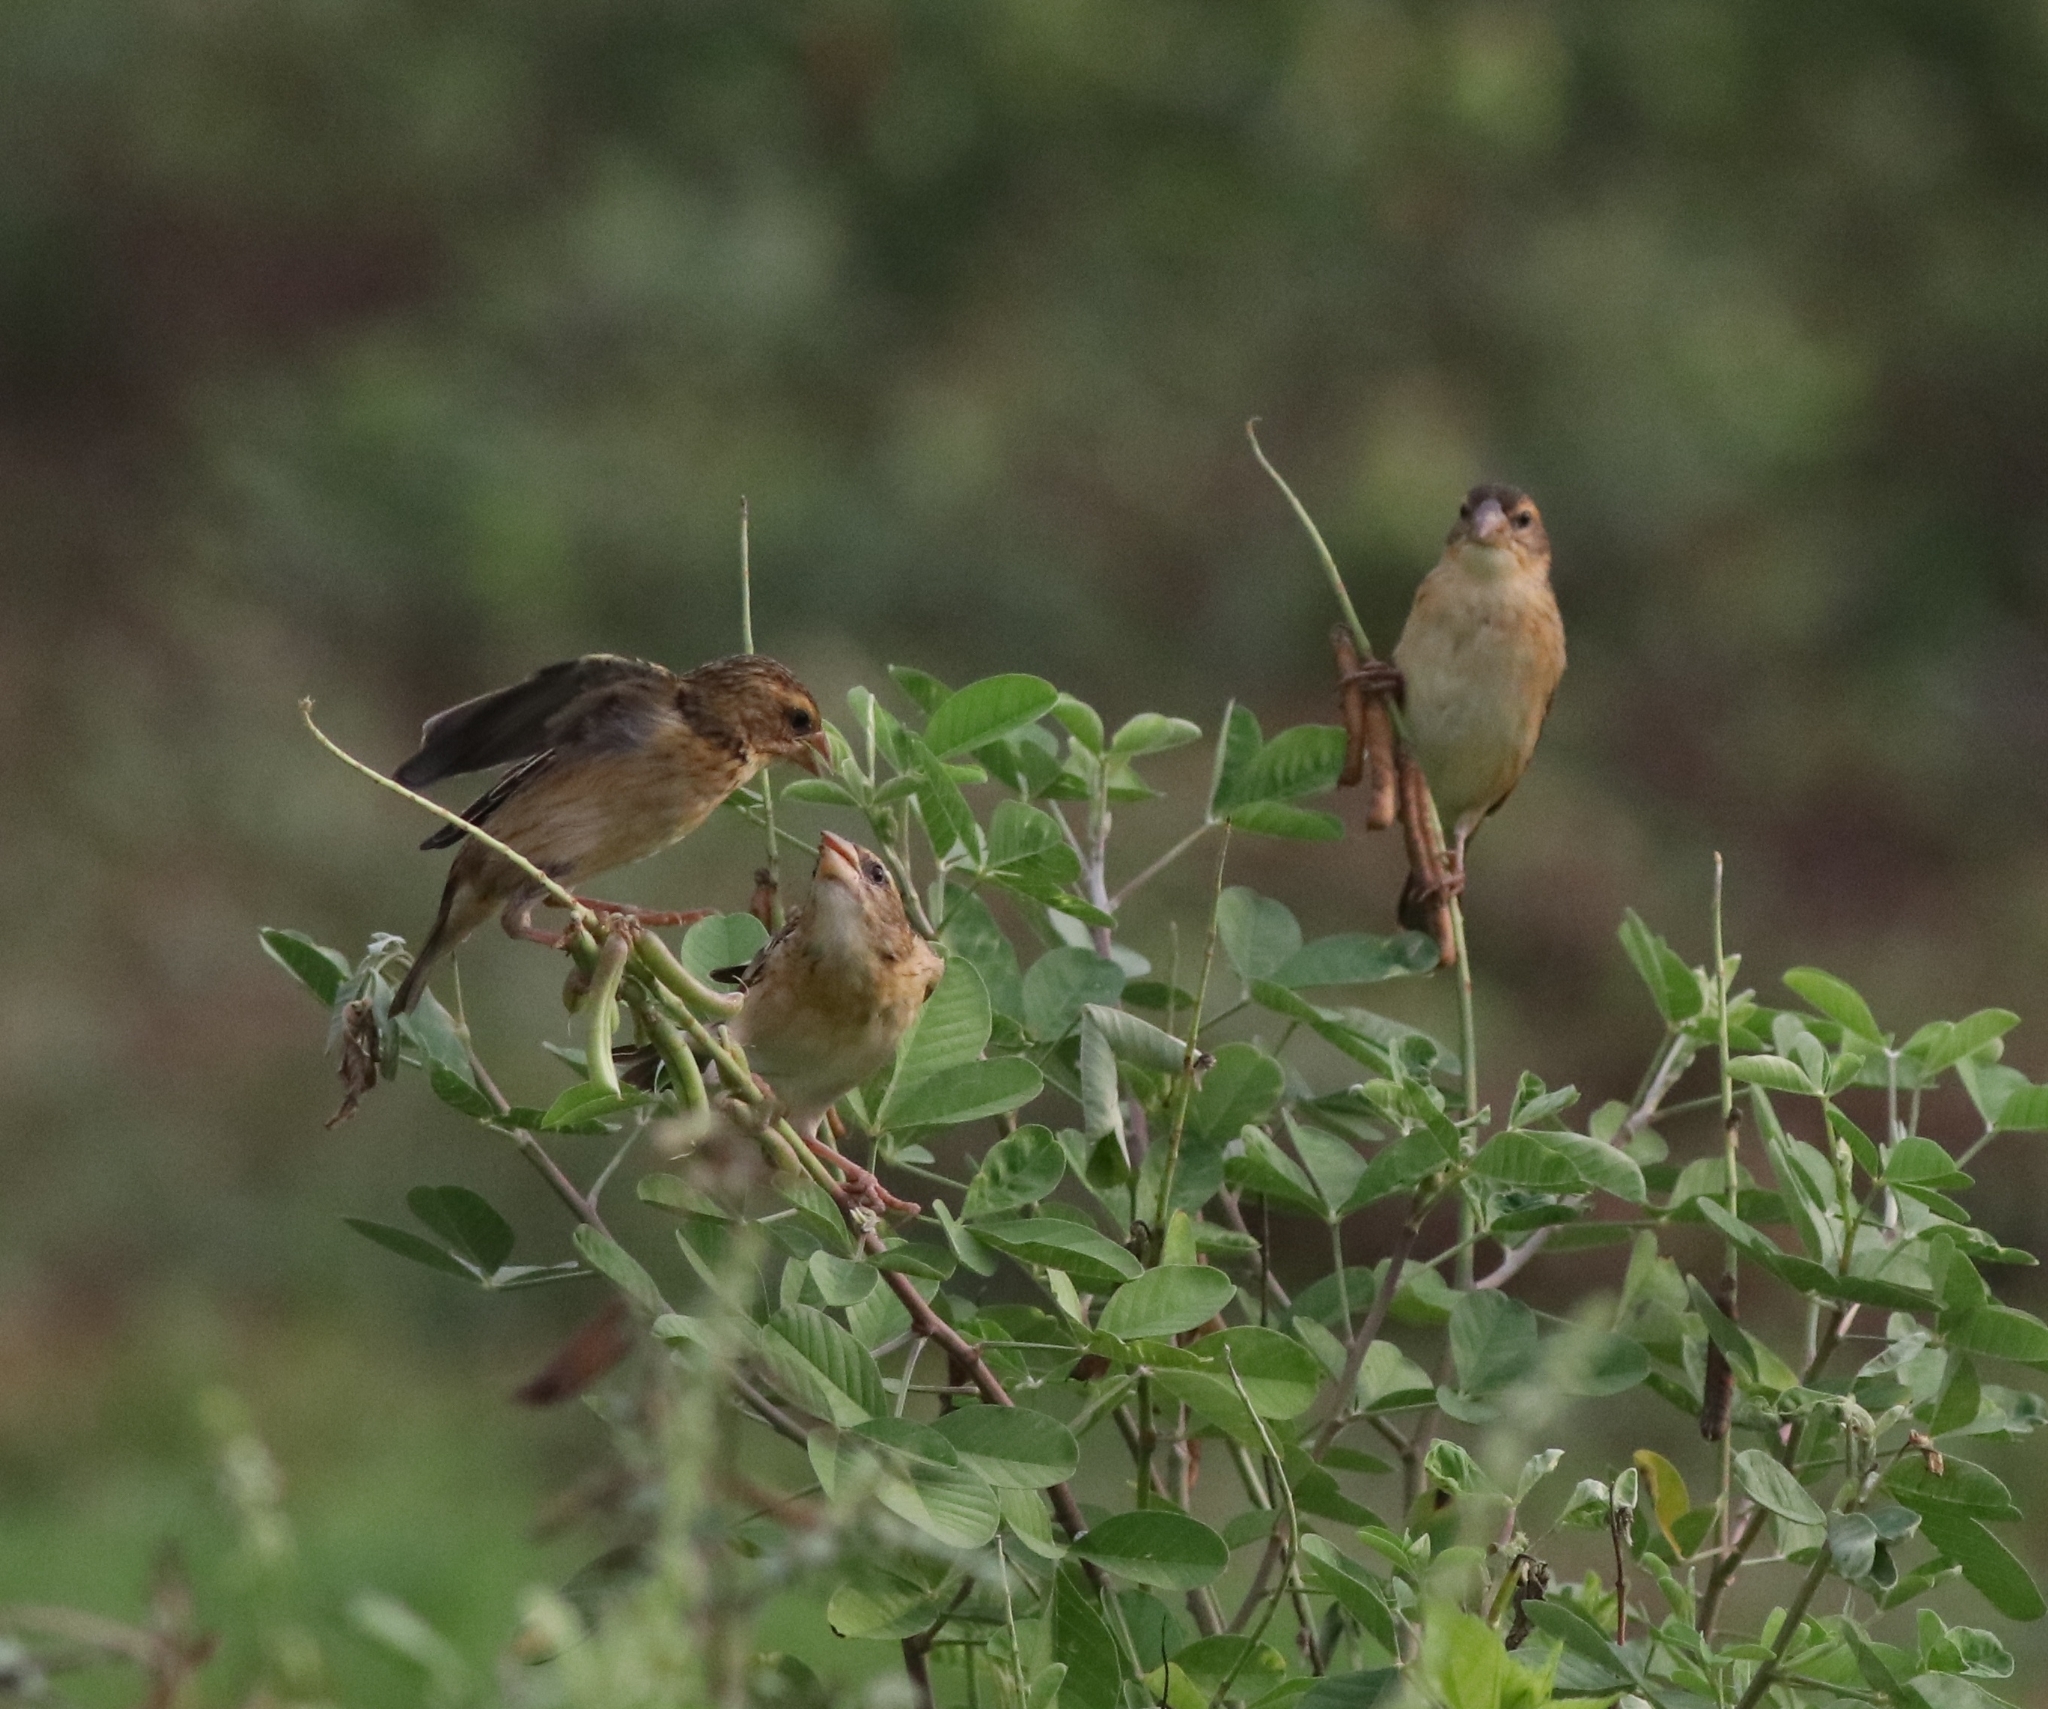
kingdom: Animalia
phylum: Chordata
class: Aves
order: Passeriformes
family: Ploceidae
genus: Ploceus
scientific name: Ploceus philippinus
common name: Baya weaver
